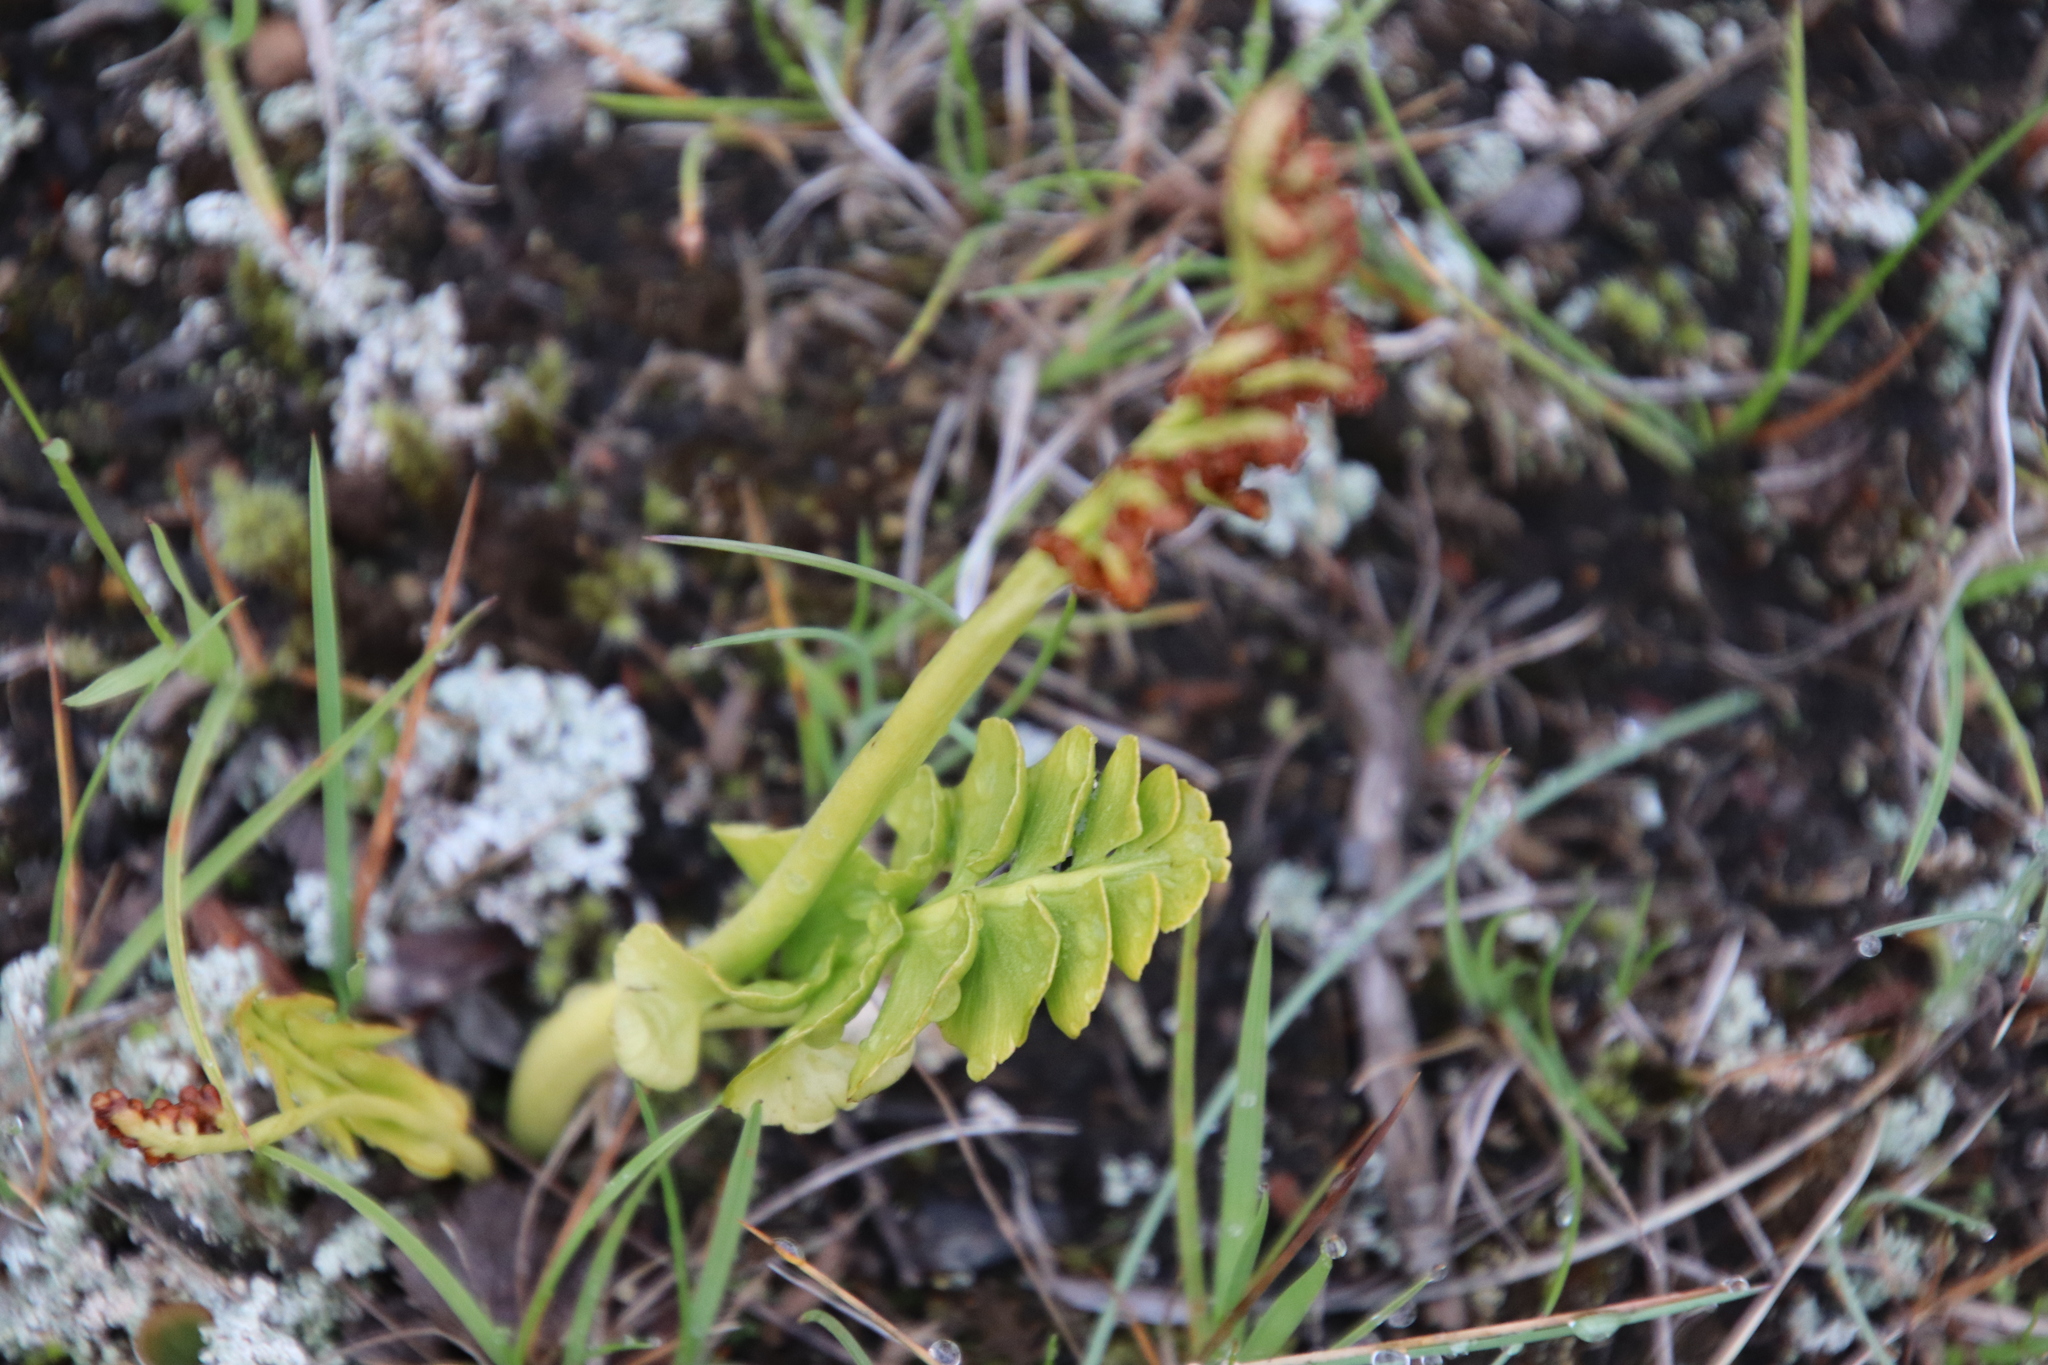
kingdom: Plantae
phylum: Tracheophyta
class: Polypodiopsida
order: Ophioglossales
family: Ophioglossaceae
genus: Botrychium
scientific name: Botrychium lunaria
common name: Moonwort
